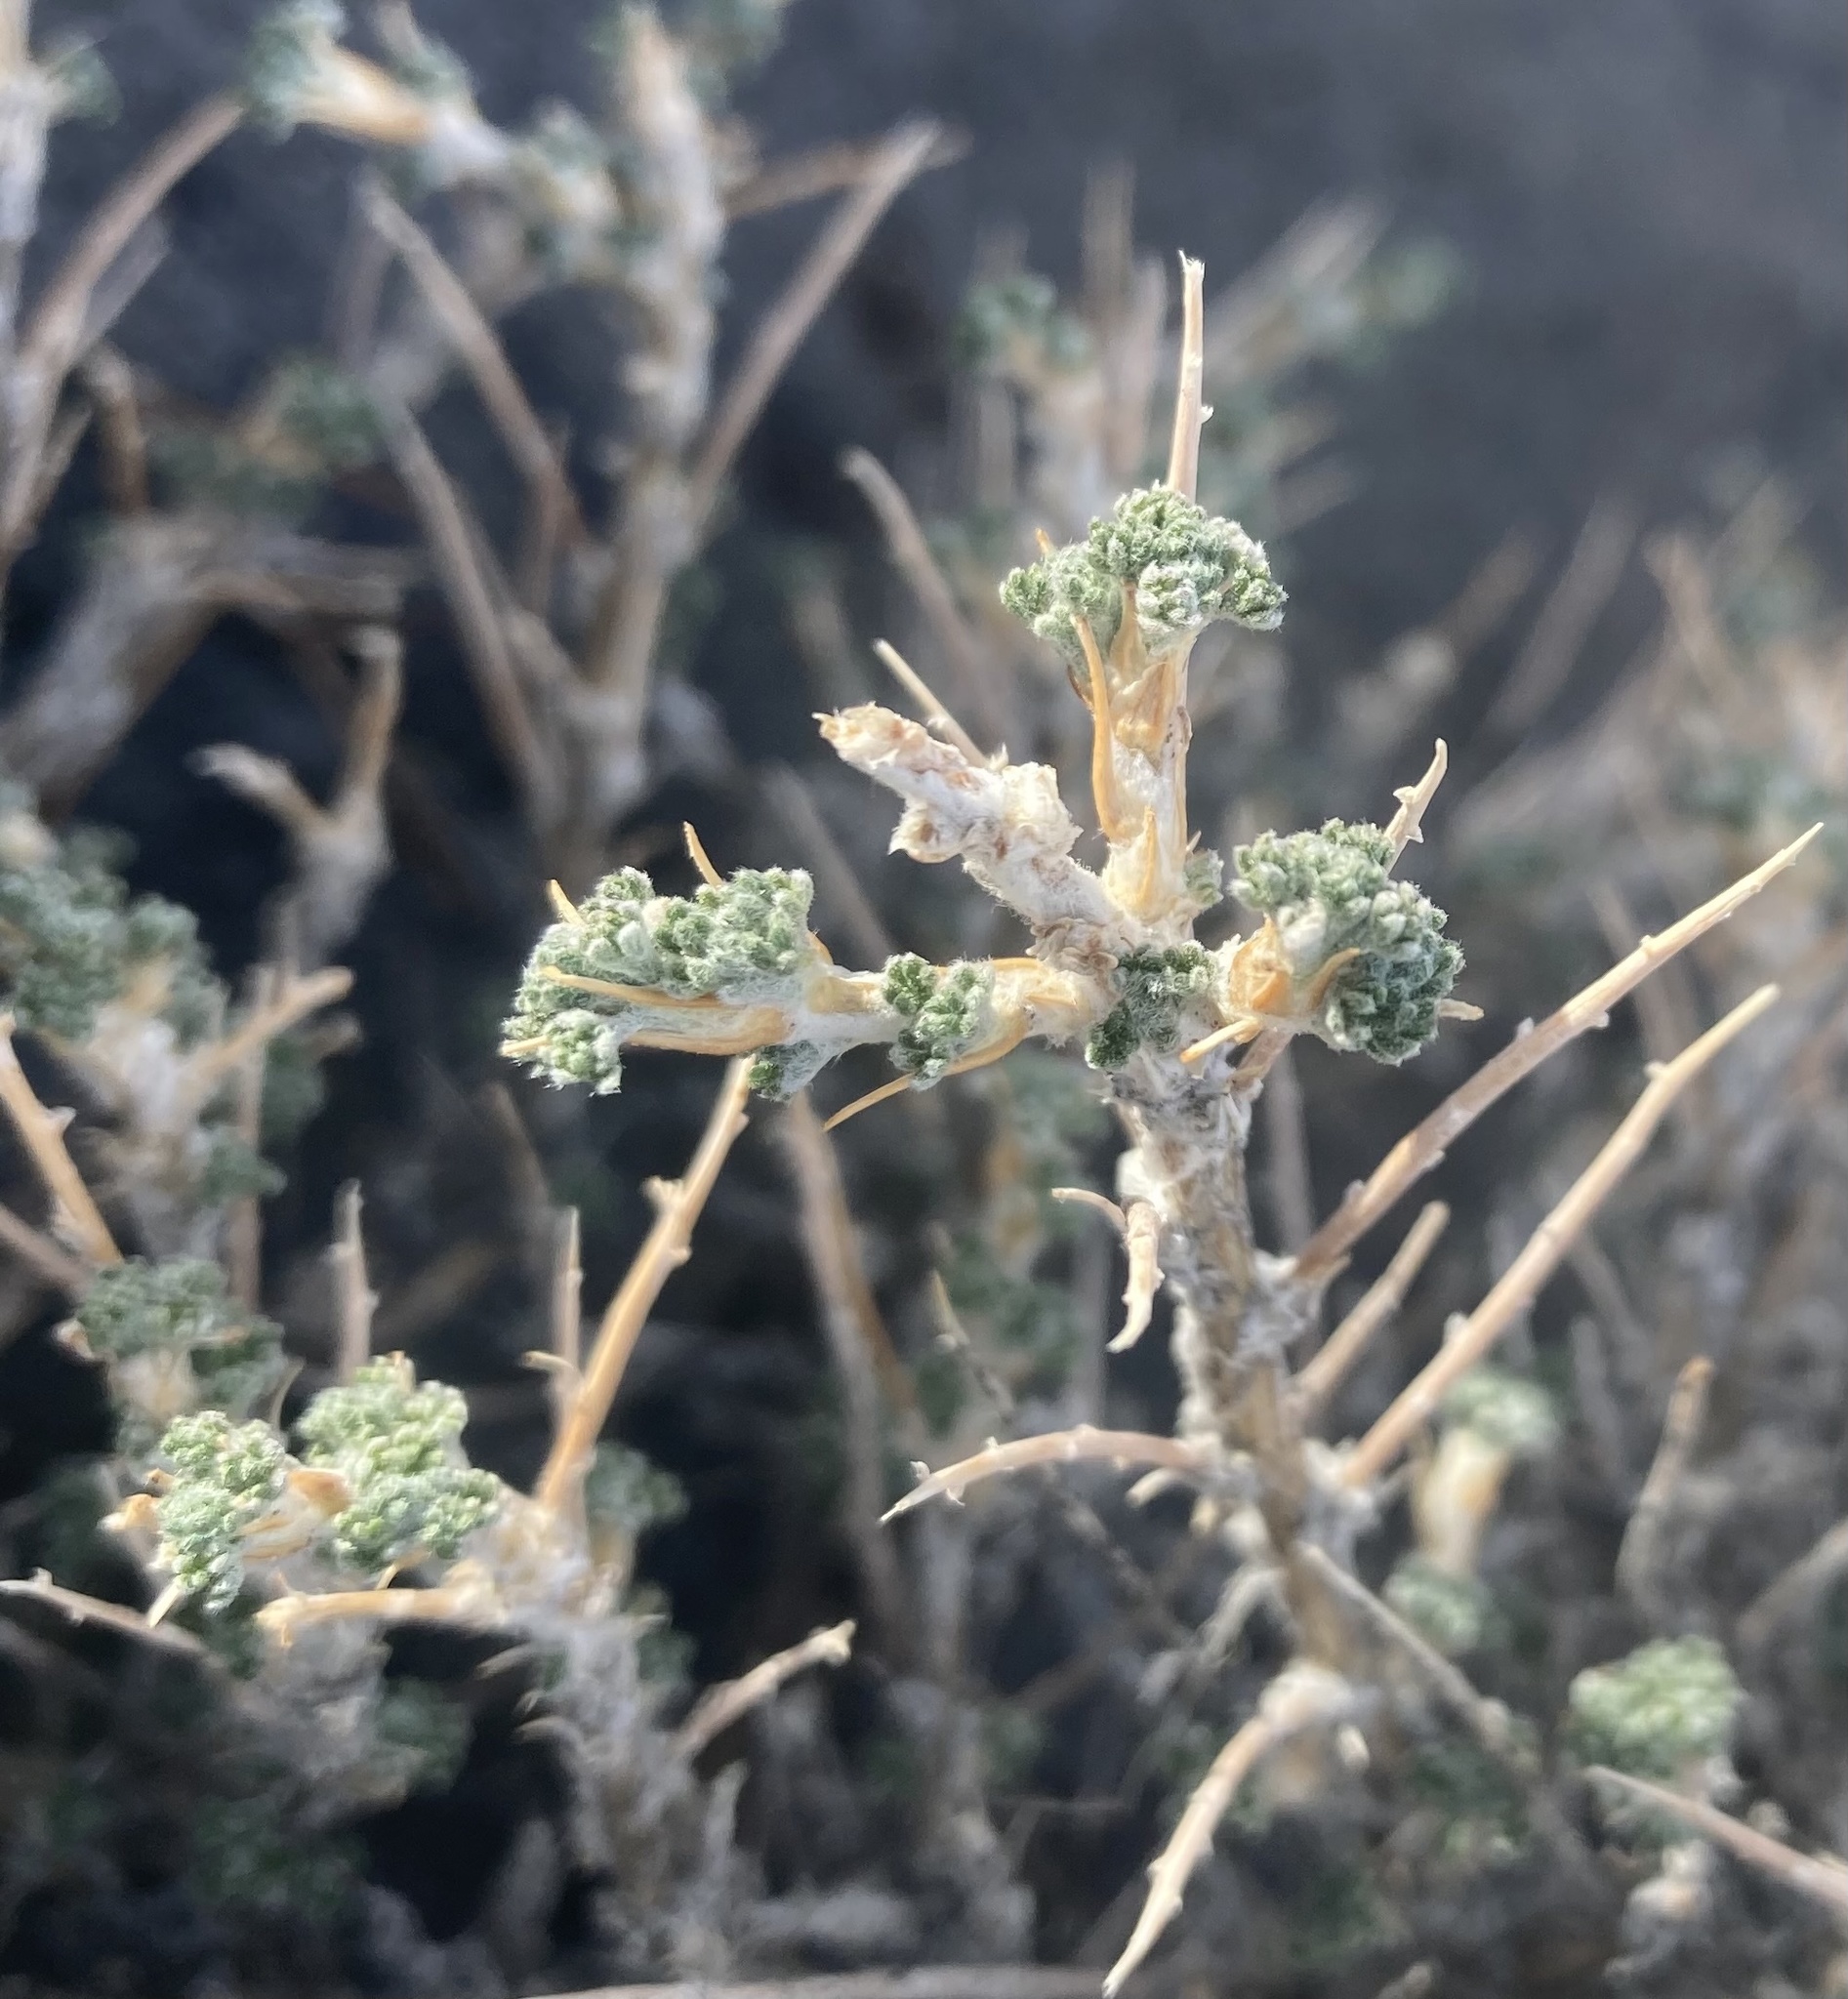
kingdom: Plantae
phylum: Tracheophyta
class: Magnoliopsida
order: Asterales
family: Asteraceae
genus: Artemisia
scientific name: Artemisia spinescens
